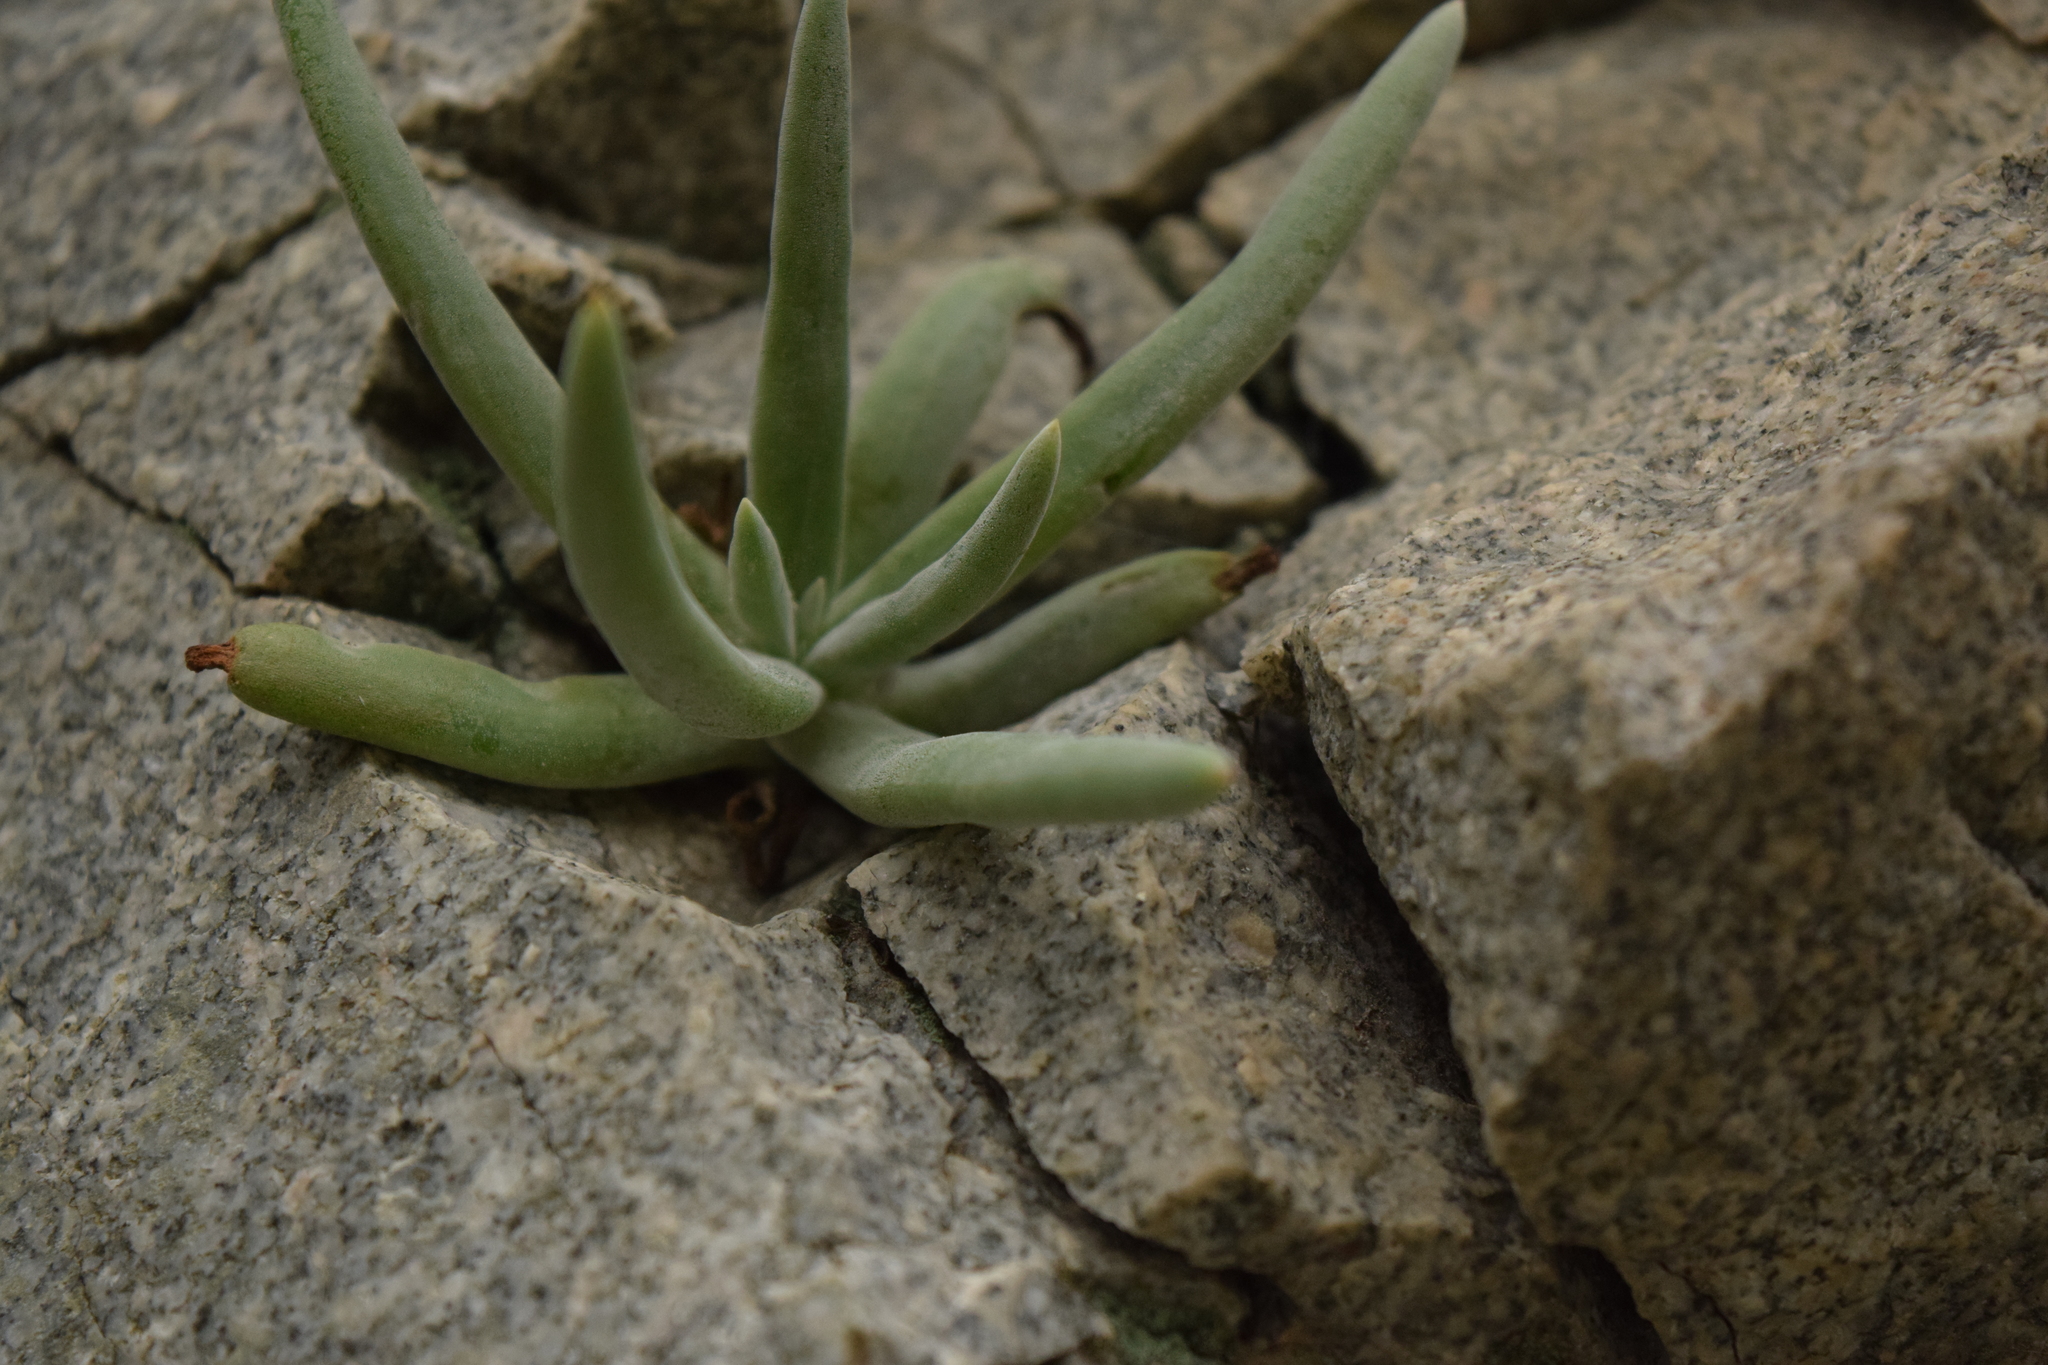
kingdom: Plantae
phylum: Tracheophyta
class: Magnoliopsida
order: Saxifragales
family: Crassulaceae
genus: Dudleya
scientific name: Dudleya densiflora
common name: San gabriel mountains dudleya
